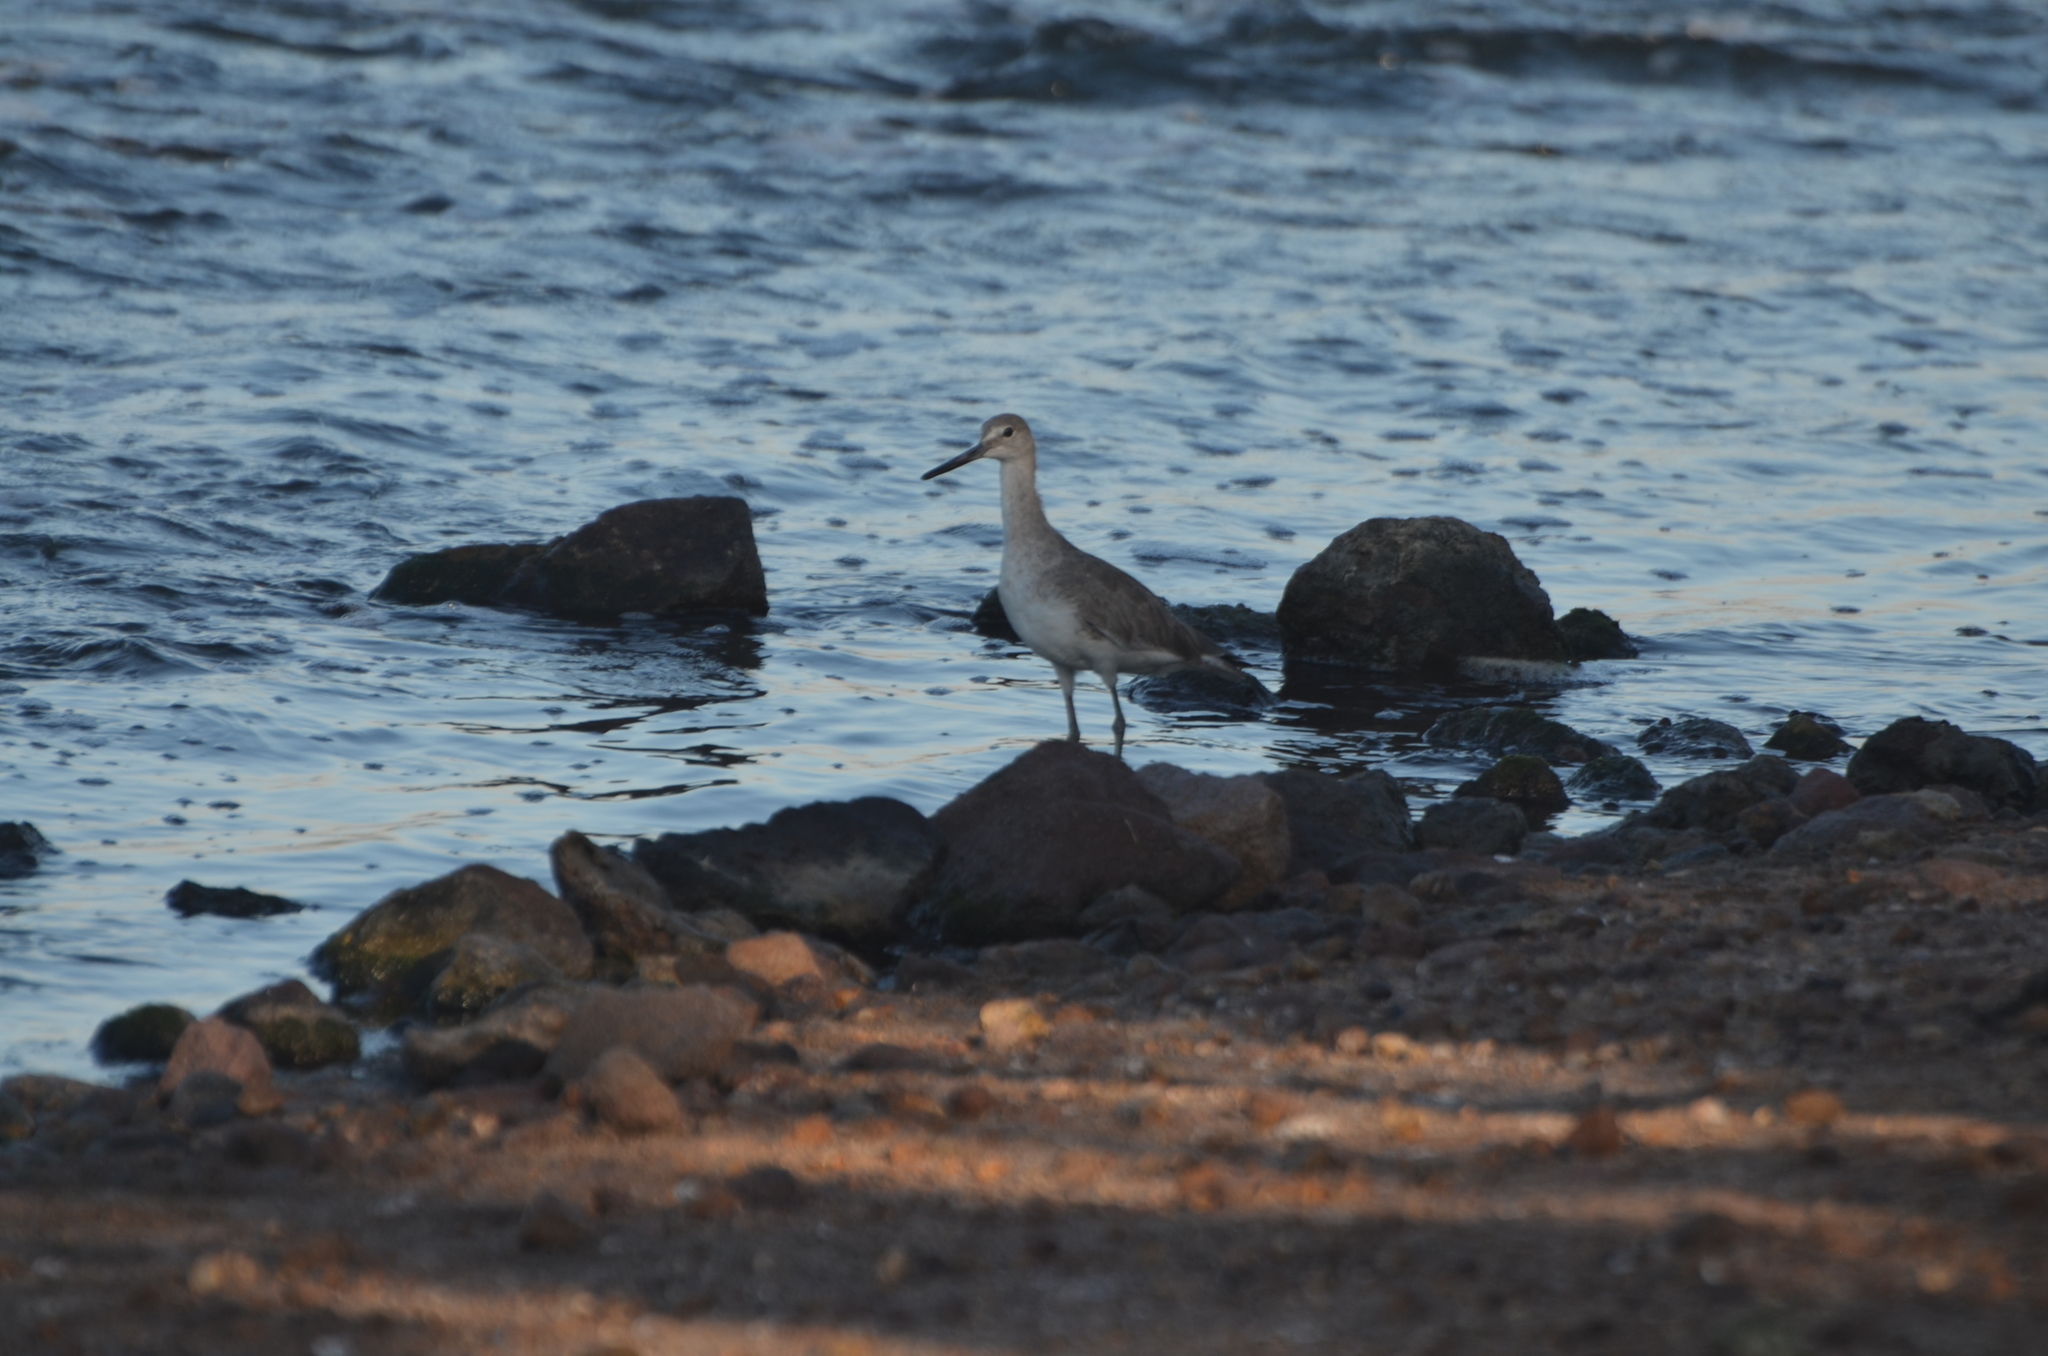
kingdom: Animalia
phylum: Chordata
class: Aves
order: Charadriiformes
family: Scolopacidae
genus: Tringa
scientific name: Tringa semipalmata
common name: Willet
